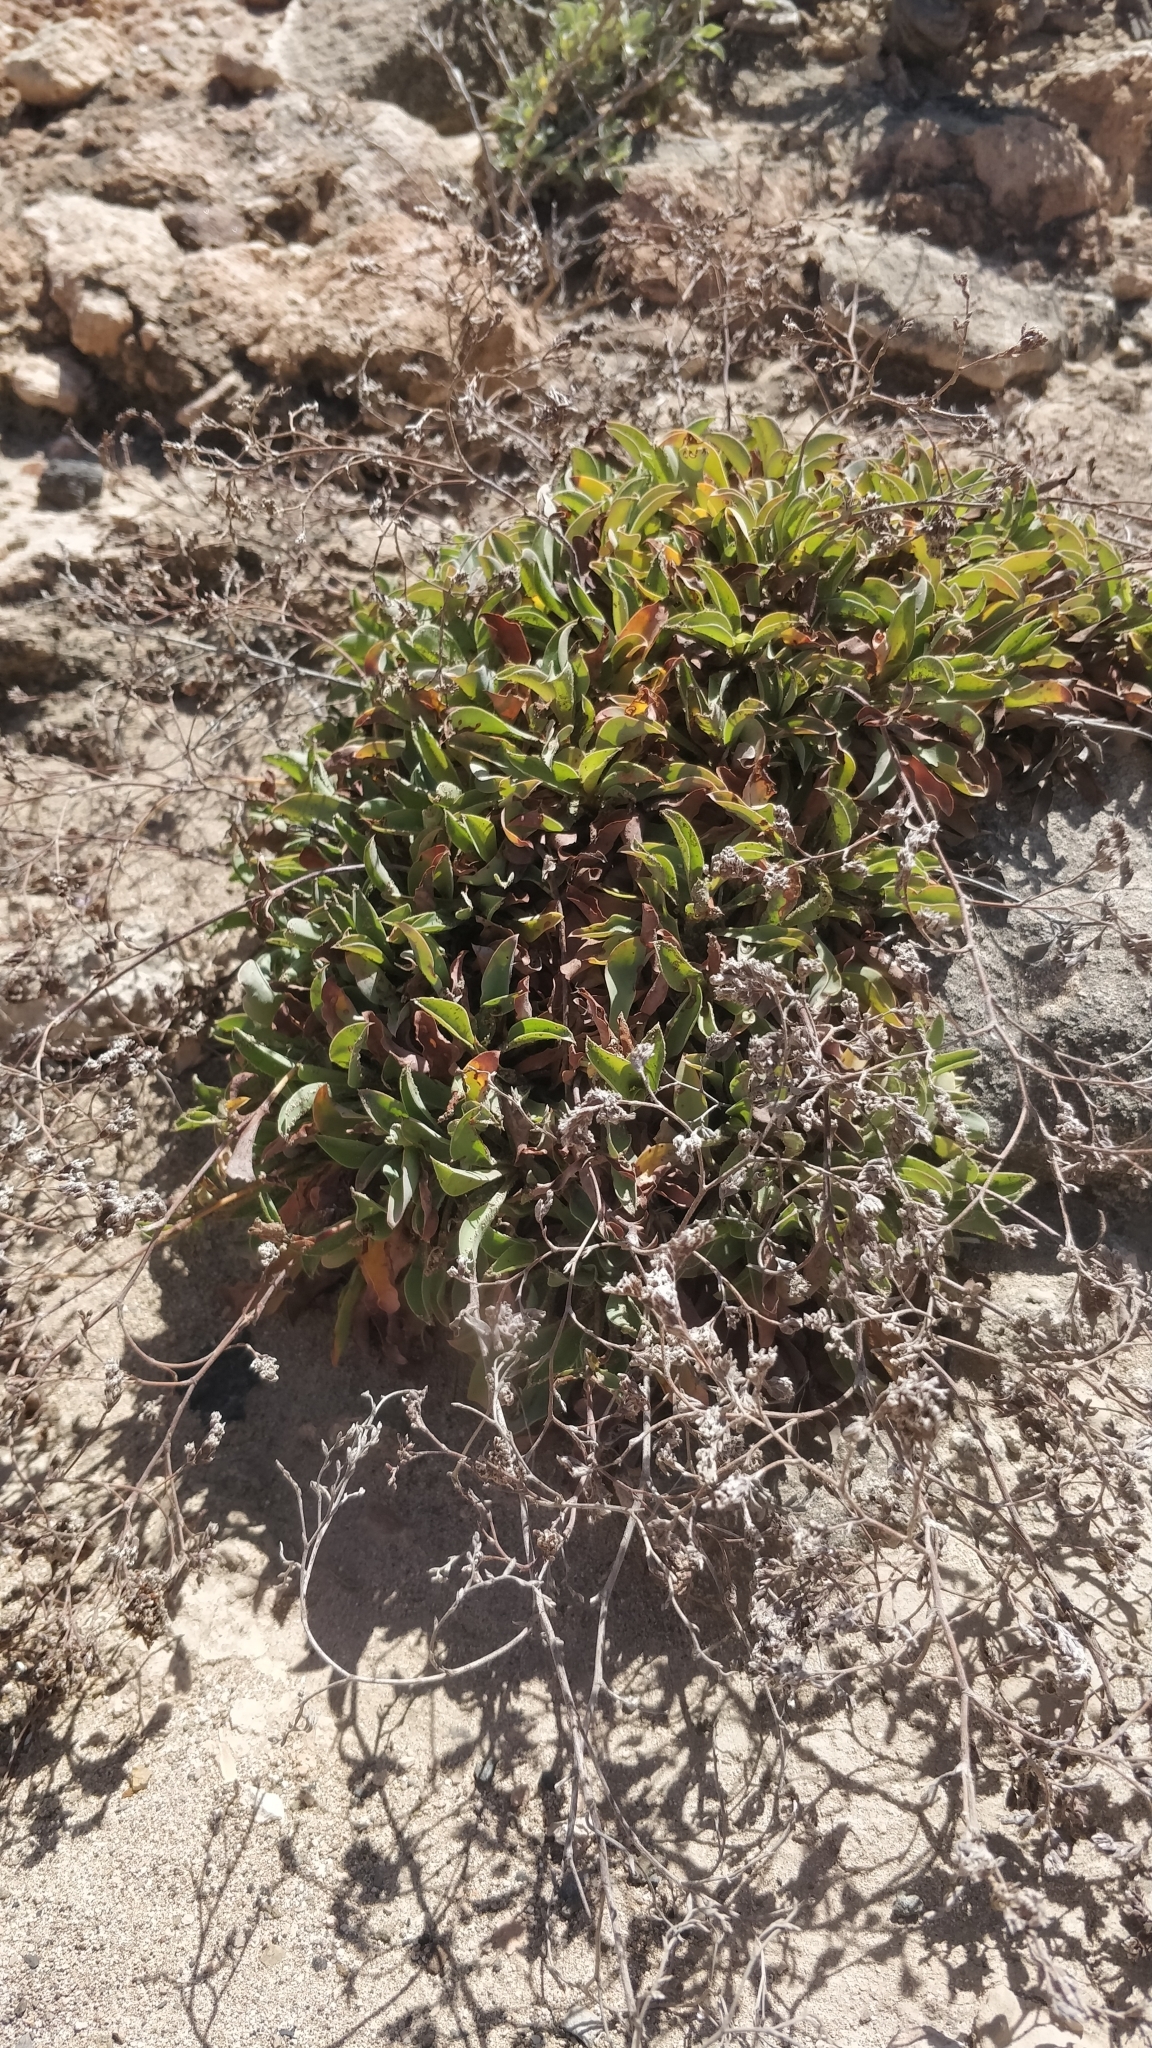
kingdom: Plantae
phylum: Tracheophyta
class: Magnoliopsida
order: Caryophyllales
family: Plumbaginaceae
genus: Limonium
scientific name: Limonium lowei
